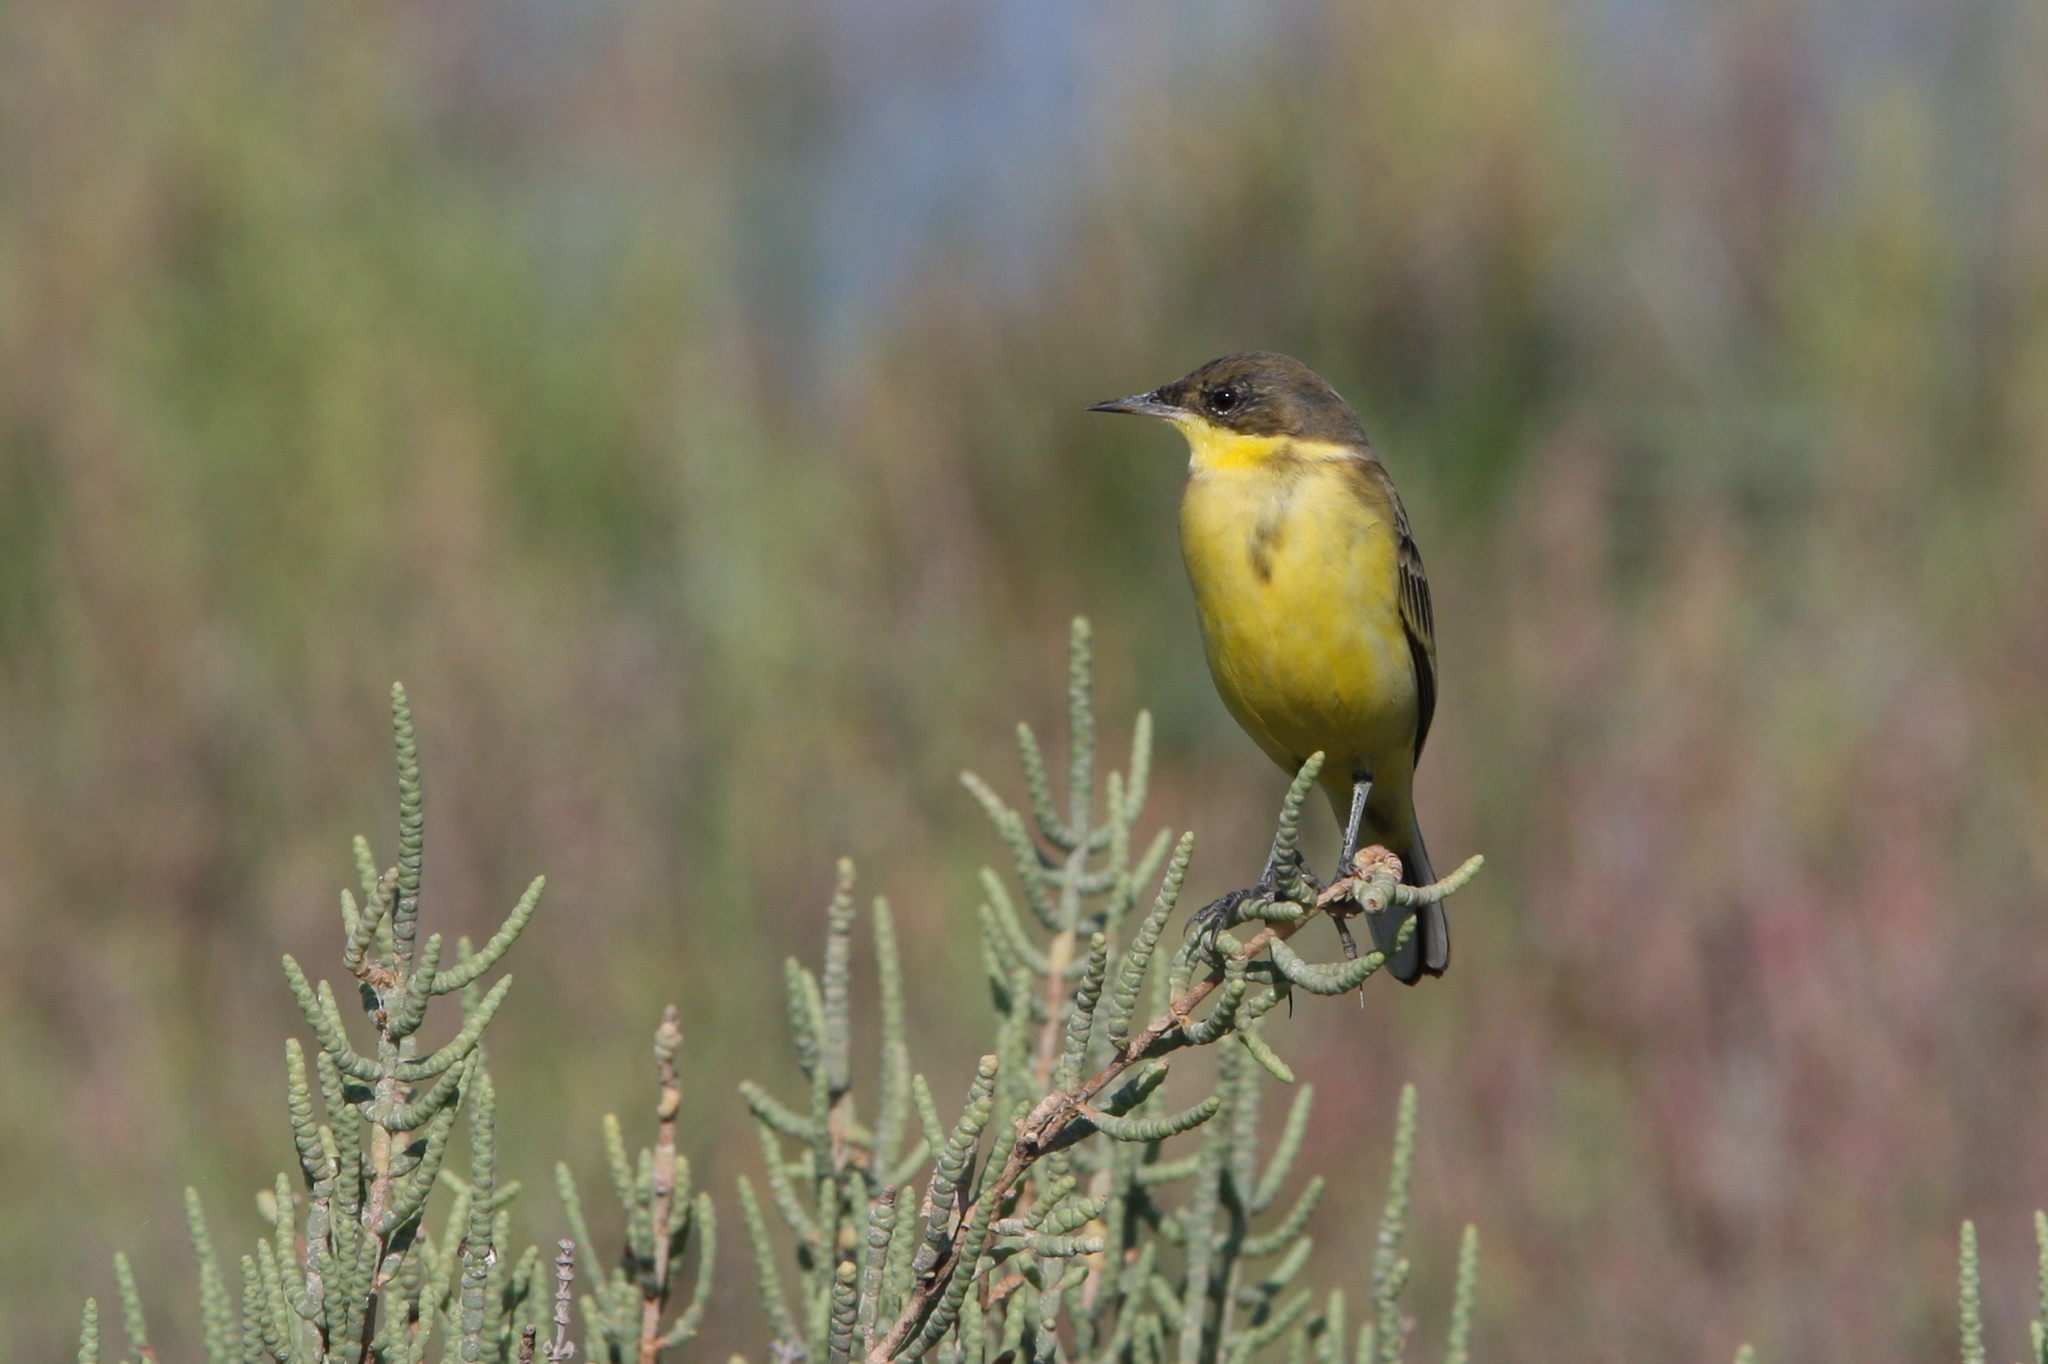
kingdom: Animalia
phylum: Chordata
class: Aves
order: Passeriformes
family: Motacillidae
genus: Motacilla
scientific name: Motacilla flava
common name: Western yellow wagtail
